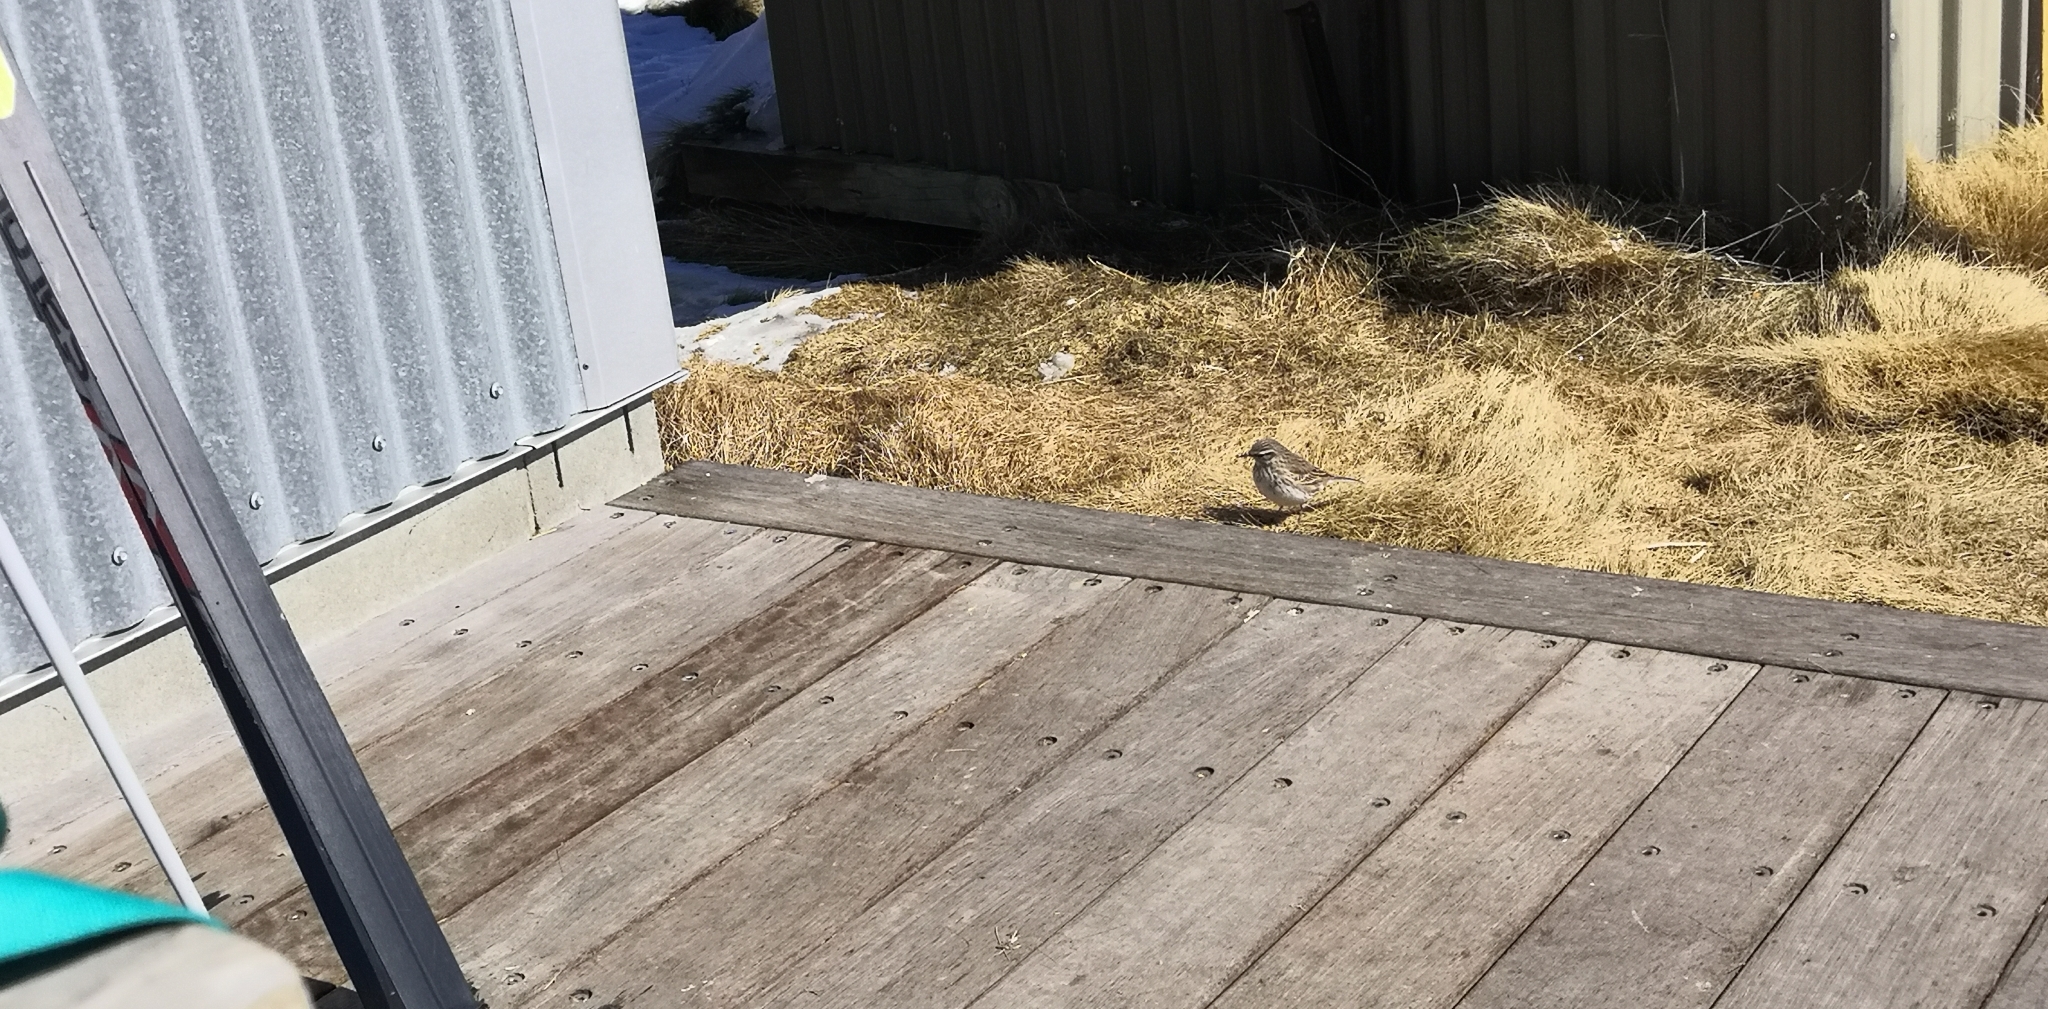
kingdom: Animalia
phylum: Chordata
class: Aves
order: Passeriformes
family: Motacillidae
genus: Anthus
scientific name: Anthus novaeseelandiae
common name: New zealand pipit
